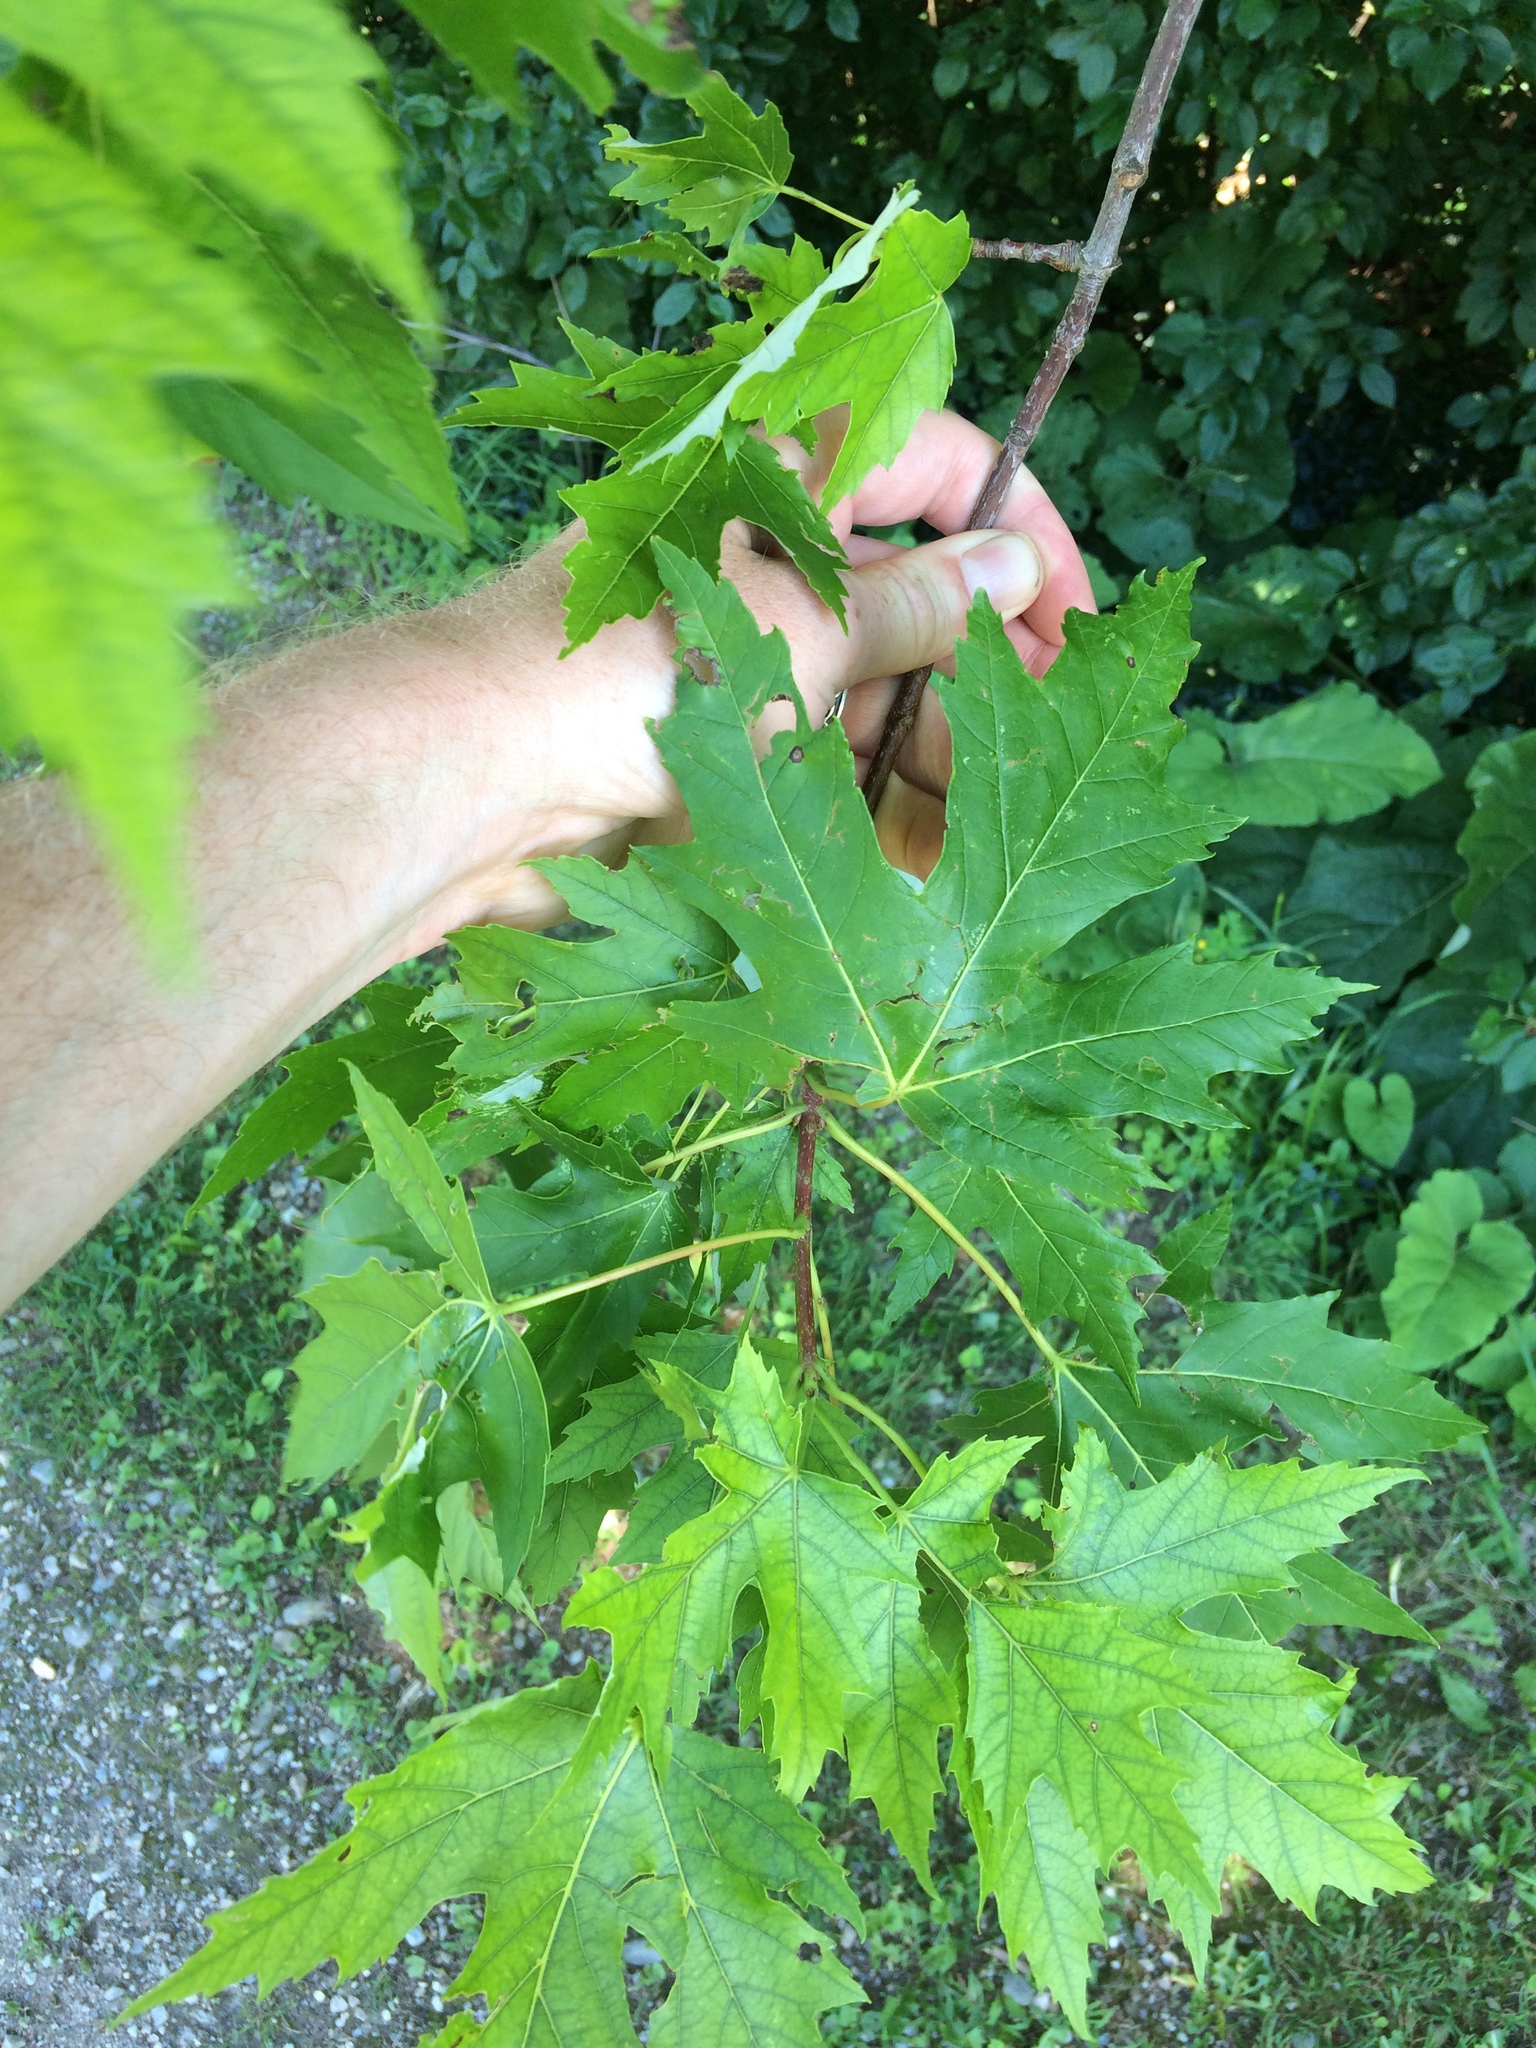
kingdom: Plantae
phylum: Tracheophyta
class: Magnoliopsida
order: Sapindales
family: Sapindaceae
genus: Acer
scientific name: Acer saccharinum
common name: Silver maple
